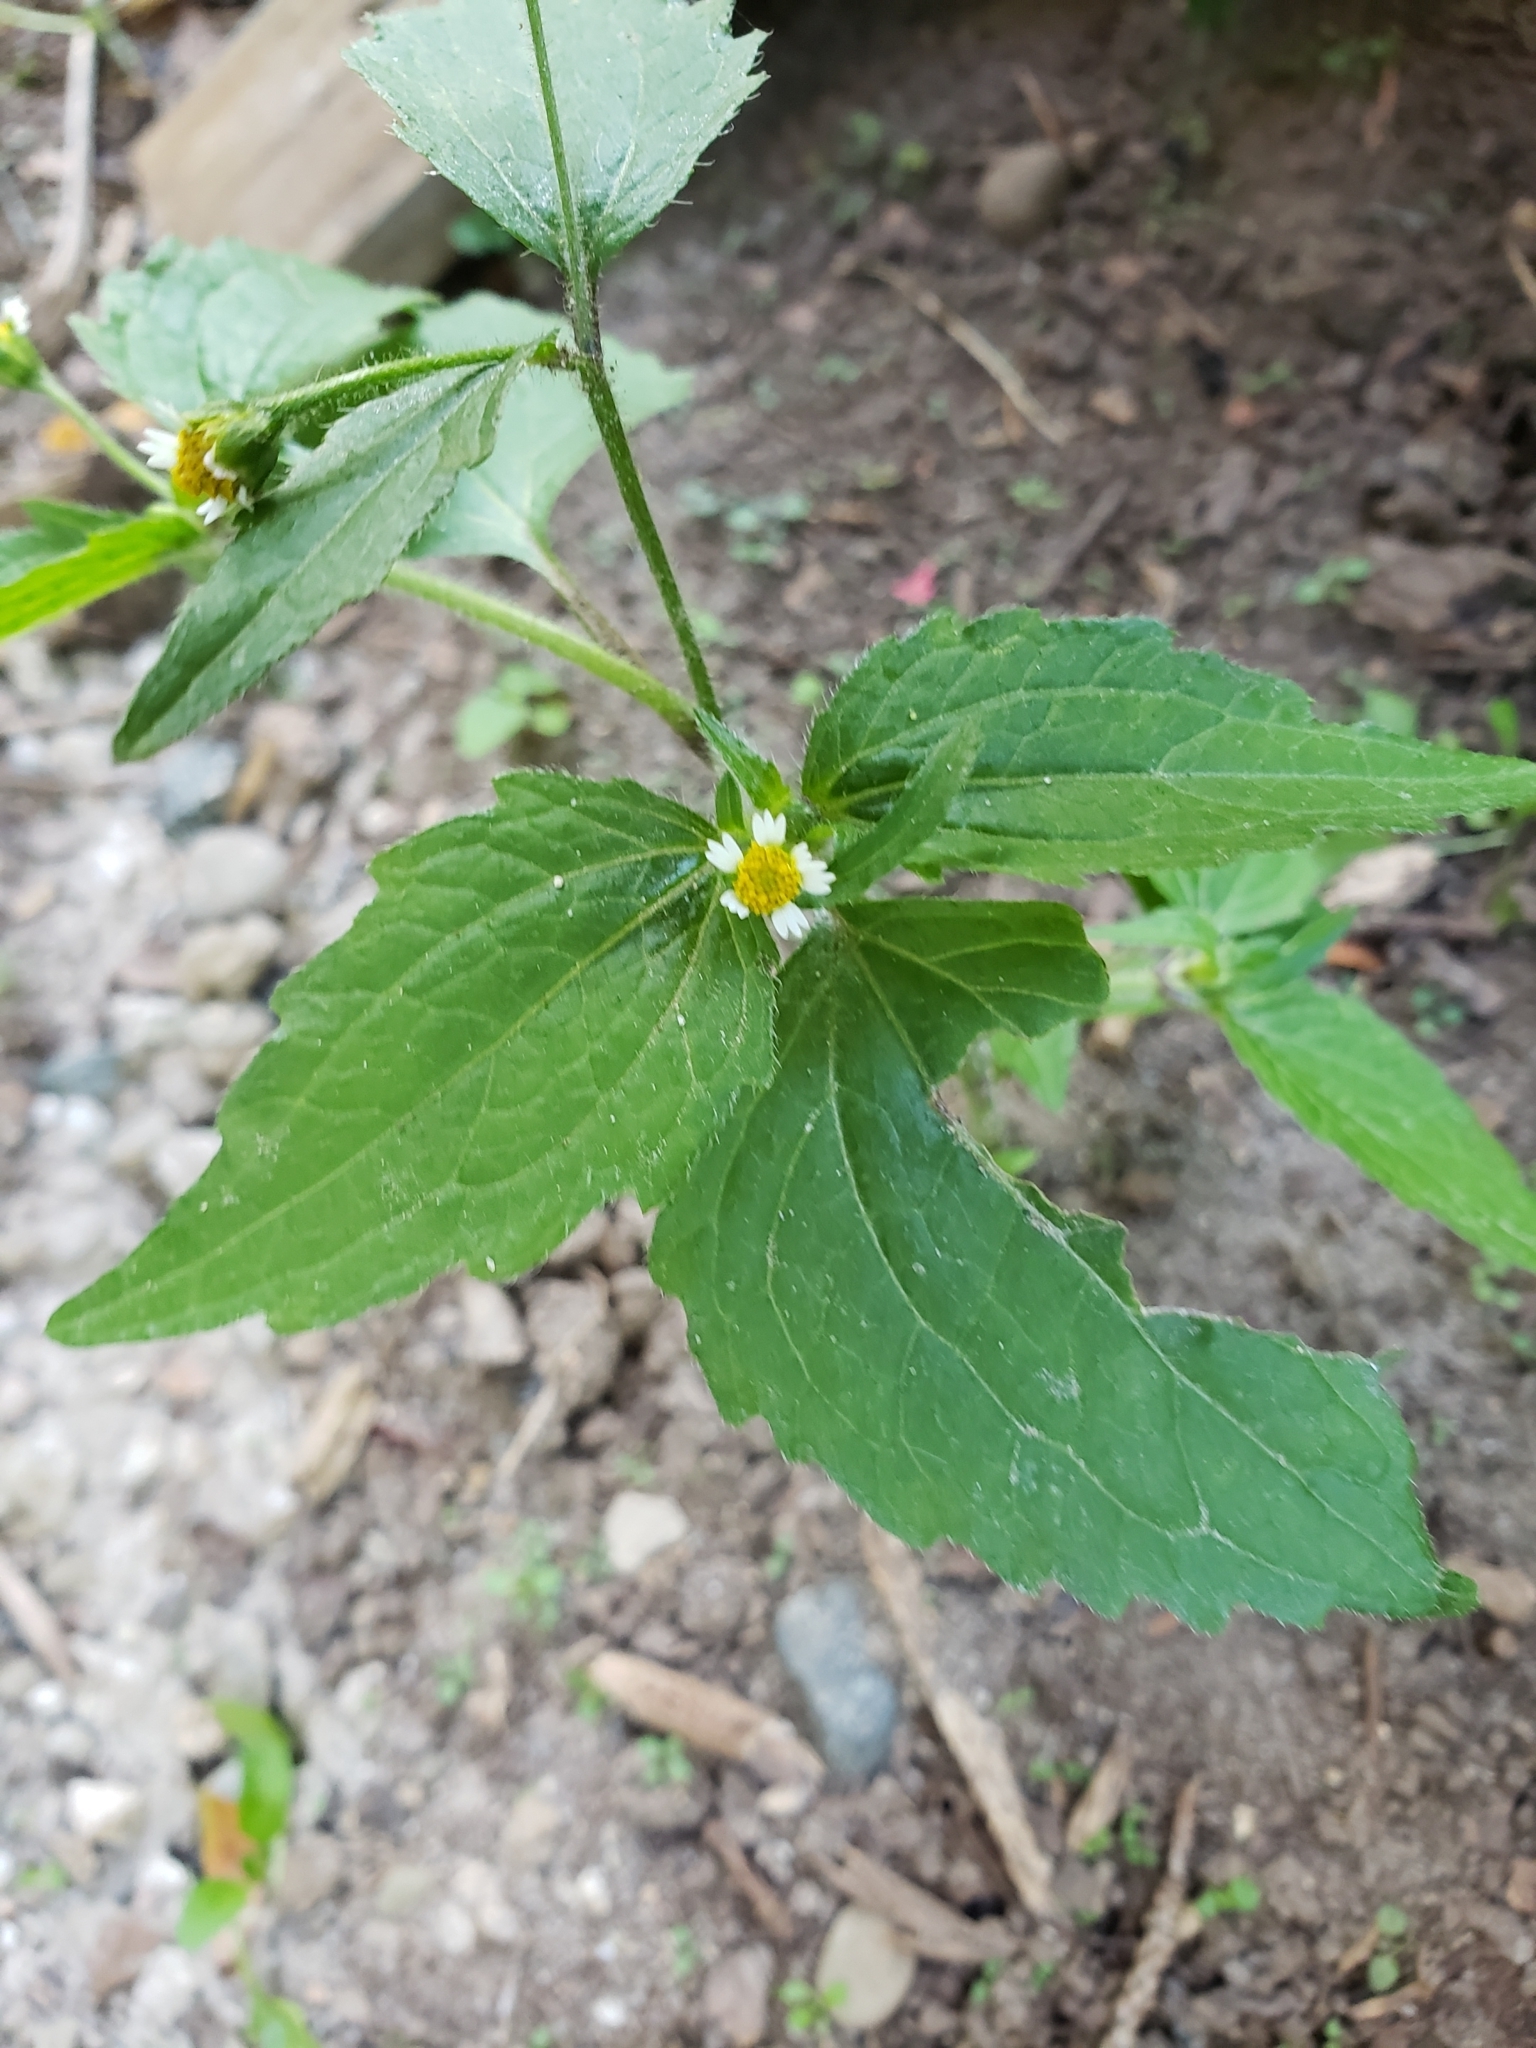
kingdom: Plantae
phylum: Tracheophyta
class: Magnoliopsida
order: Asterales
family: Asteraceae
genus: Galinsoga
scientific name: Galinsoga quadriradiata
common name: Shaggy soldier
